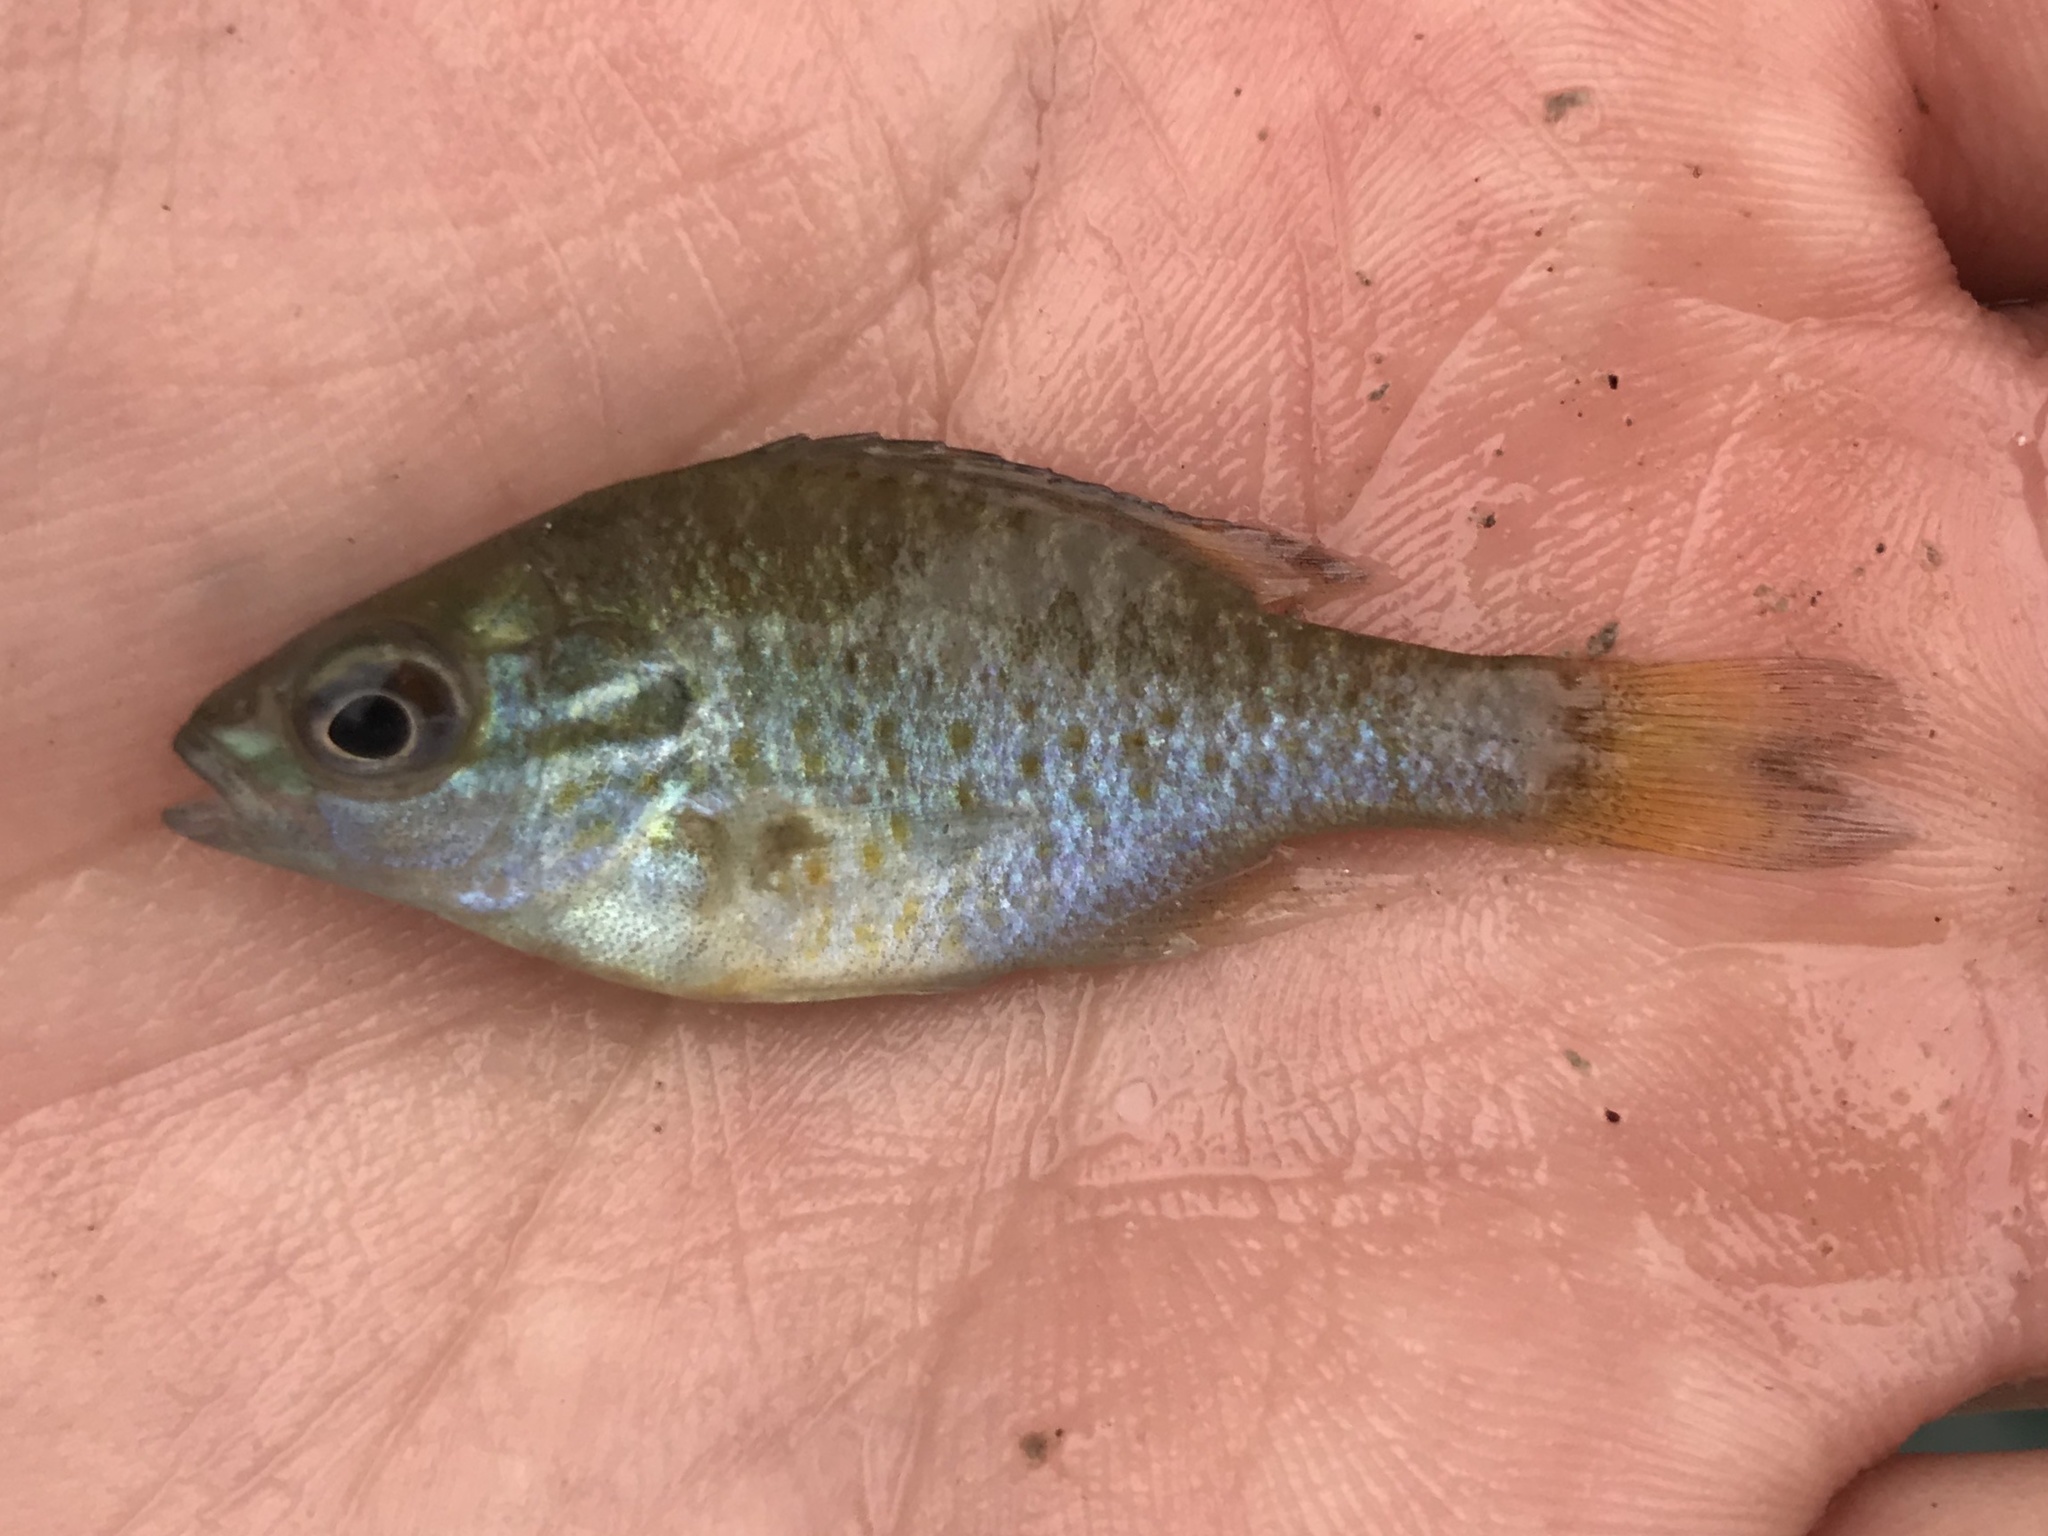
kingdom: Animalia
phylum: Chordata
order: Perciformes
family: Centrarchidae
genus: Lepomis
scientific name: Lepomis auritus
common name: Redbreast sunfish
